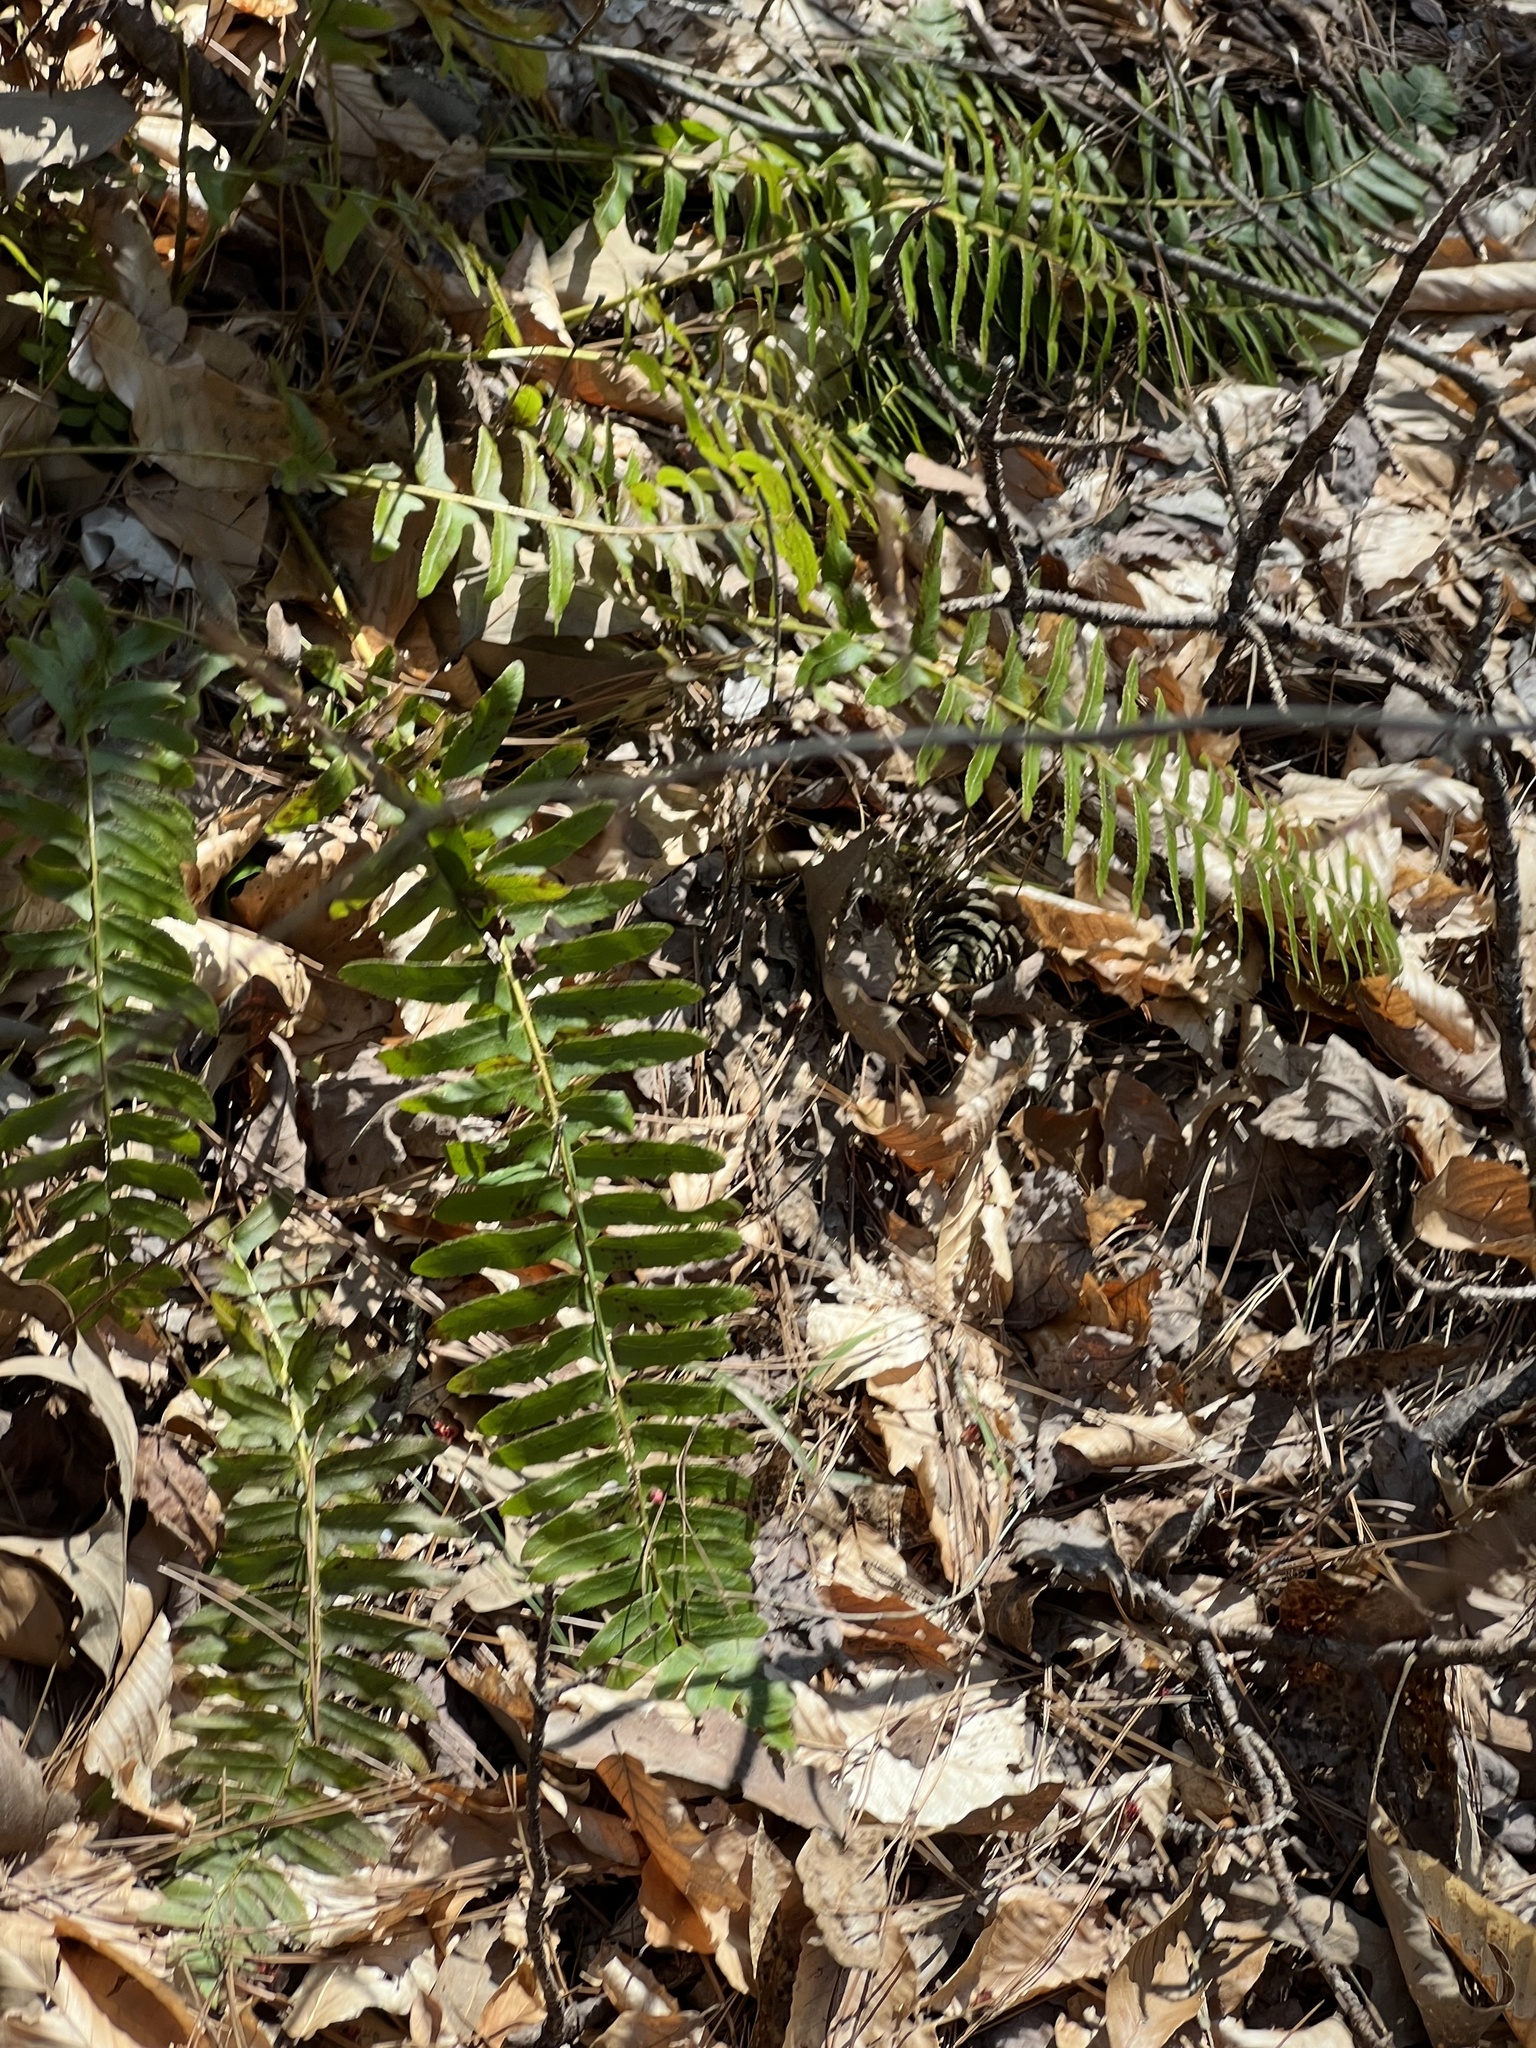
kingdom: Plantae
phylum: Tracheophyta
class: Polypodiopsida
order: Polypodiales
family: Dryopteridaceae
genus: Polystichum
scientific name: Polystichum acrostichoides
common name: Christmas fern
